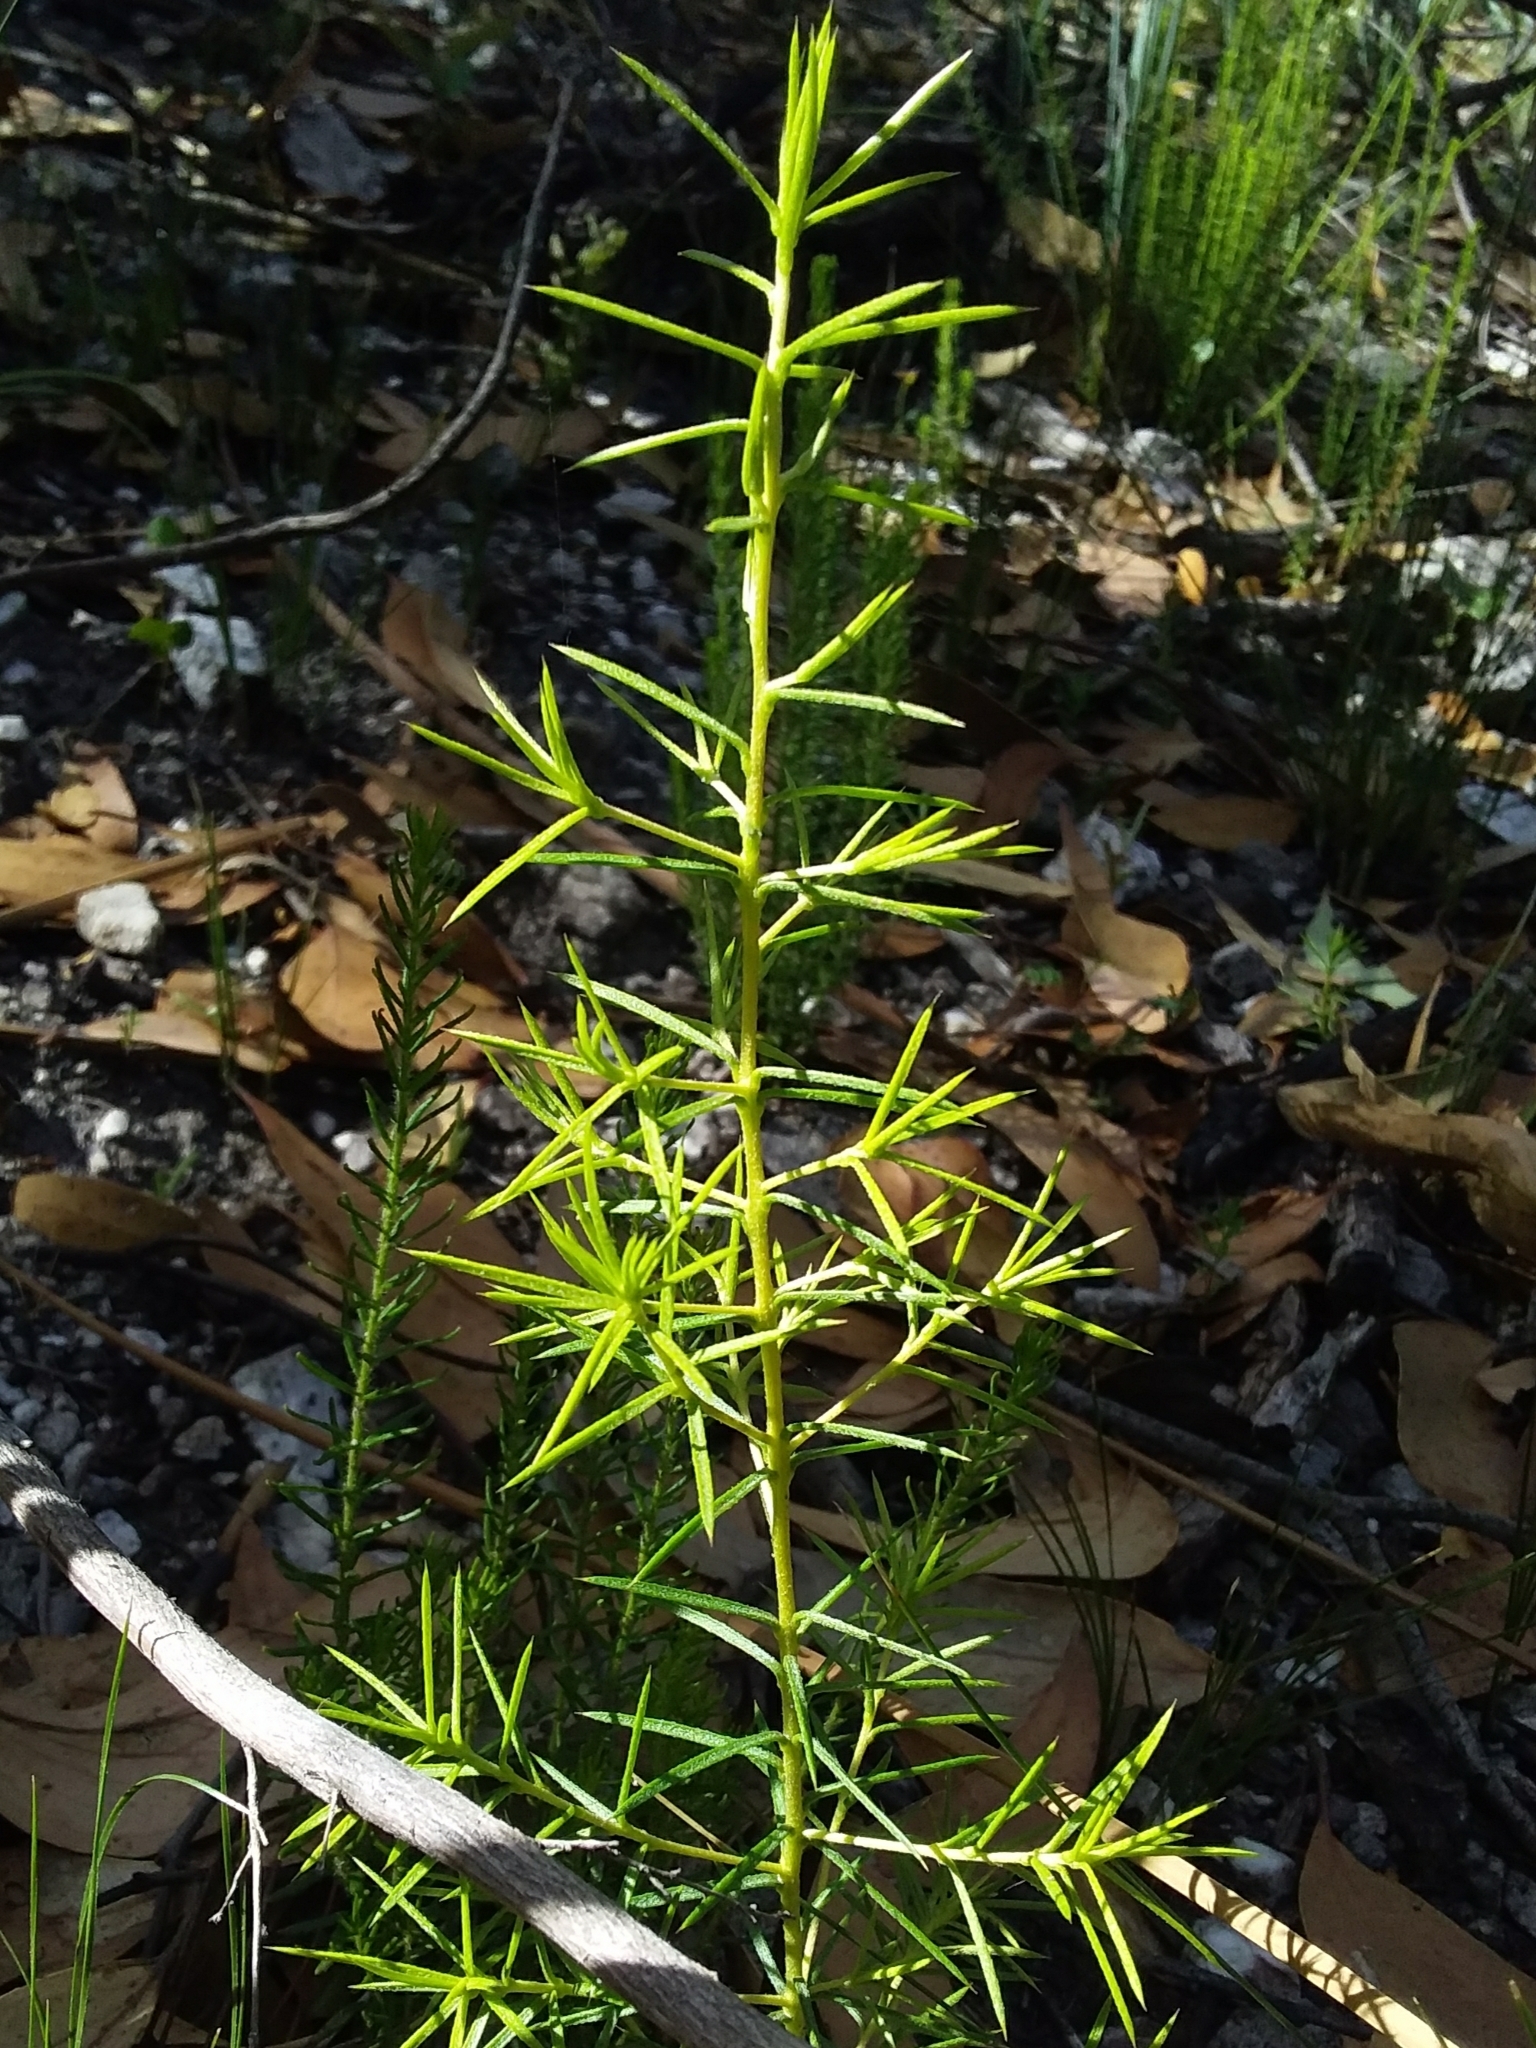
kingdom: Plantae
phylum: Tracheophyta
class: Magnoliopsida
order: Proteales
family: Proteaceae
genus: Persoonia
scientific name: Persoonia juniperina
